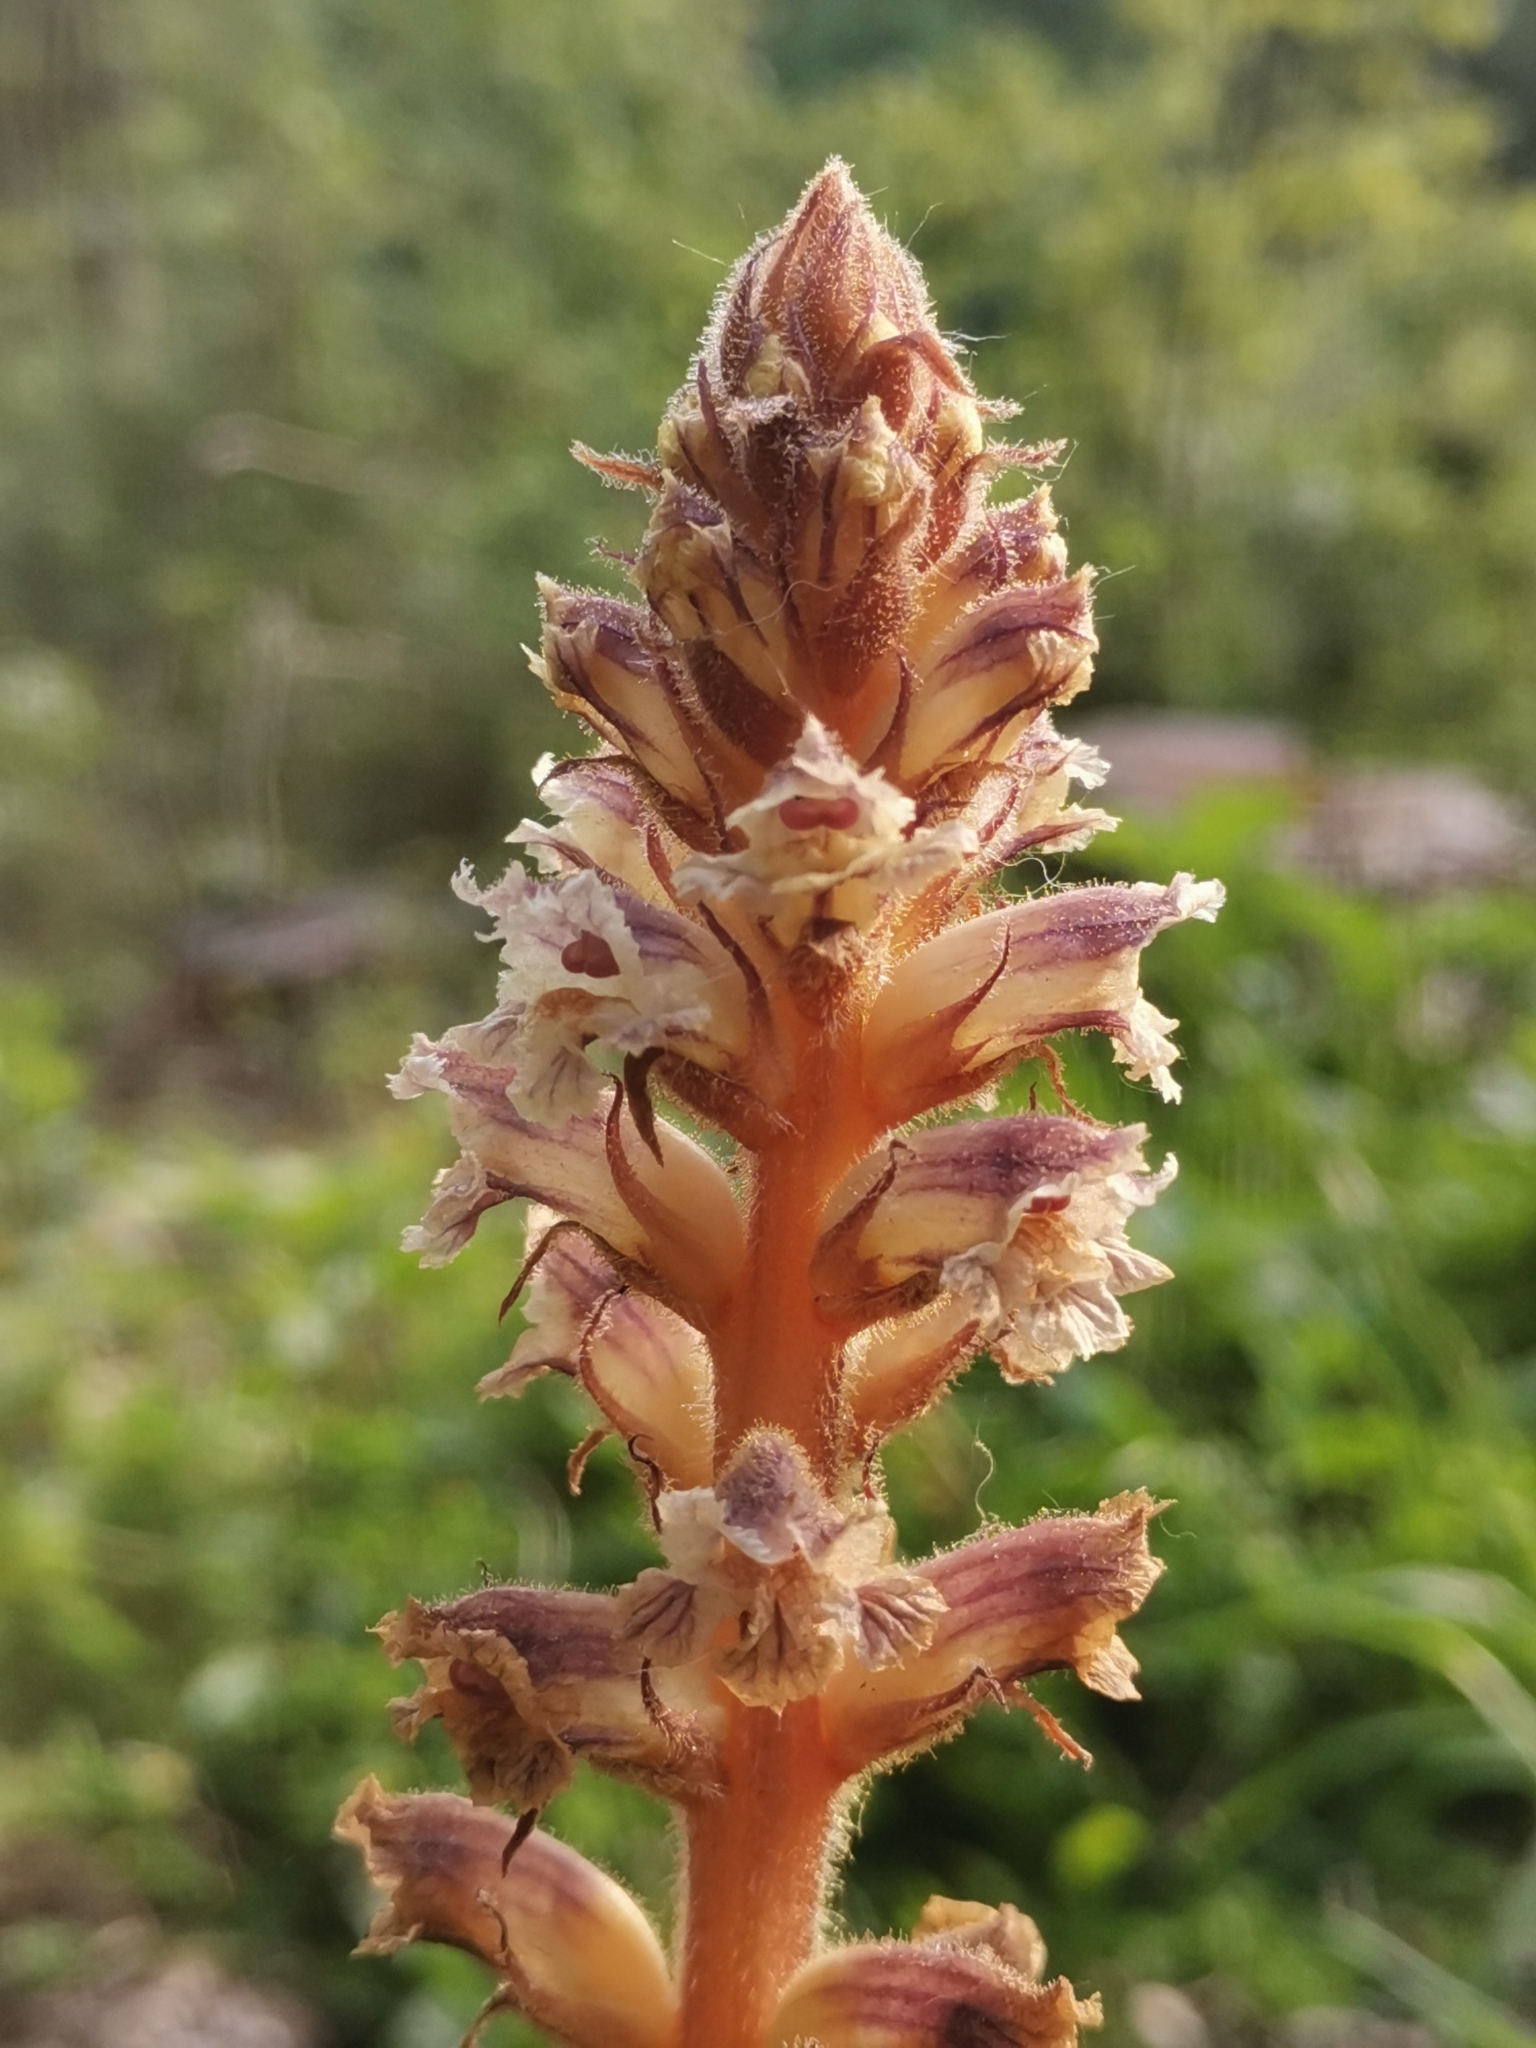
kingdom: Plantae
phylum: Tracheophyta
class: Magnoliopsida
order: Lamiales
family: Orobanchaceae
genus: Orobanche
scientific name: Orobanche minor
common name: Common broomrape
